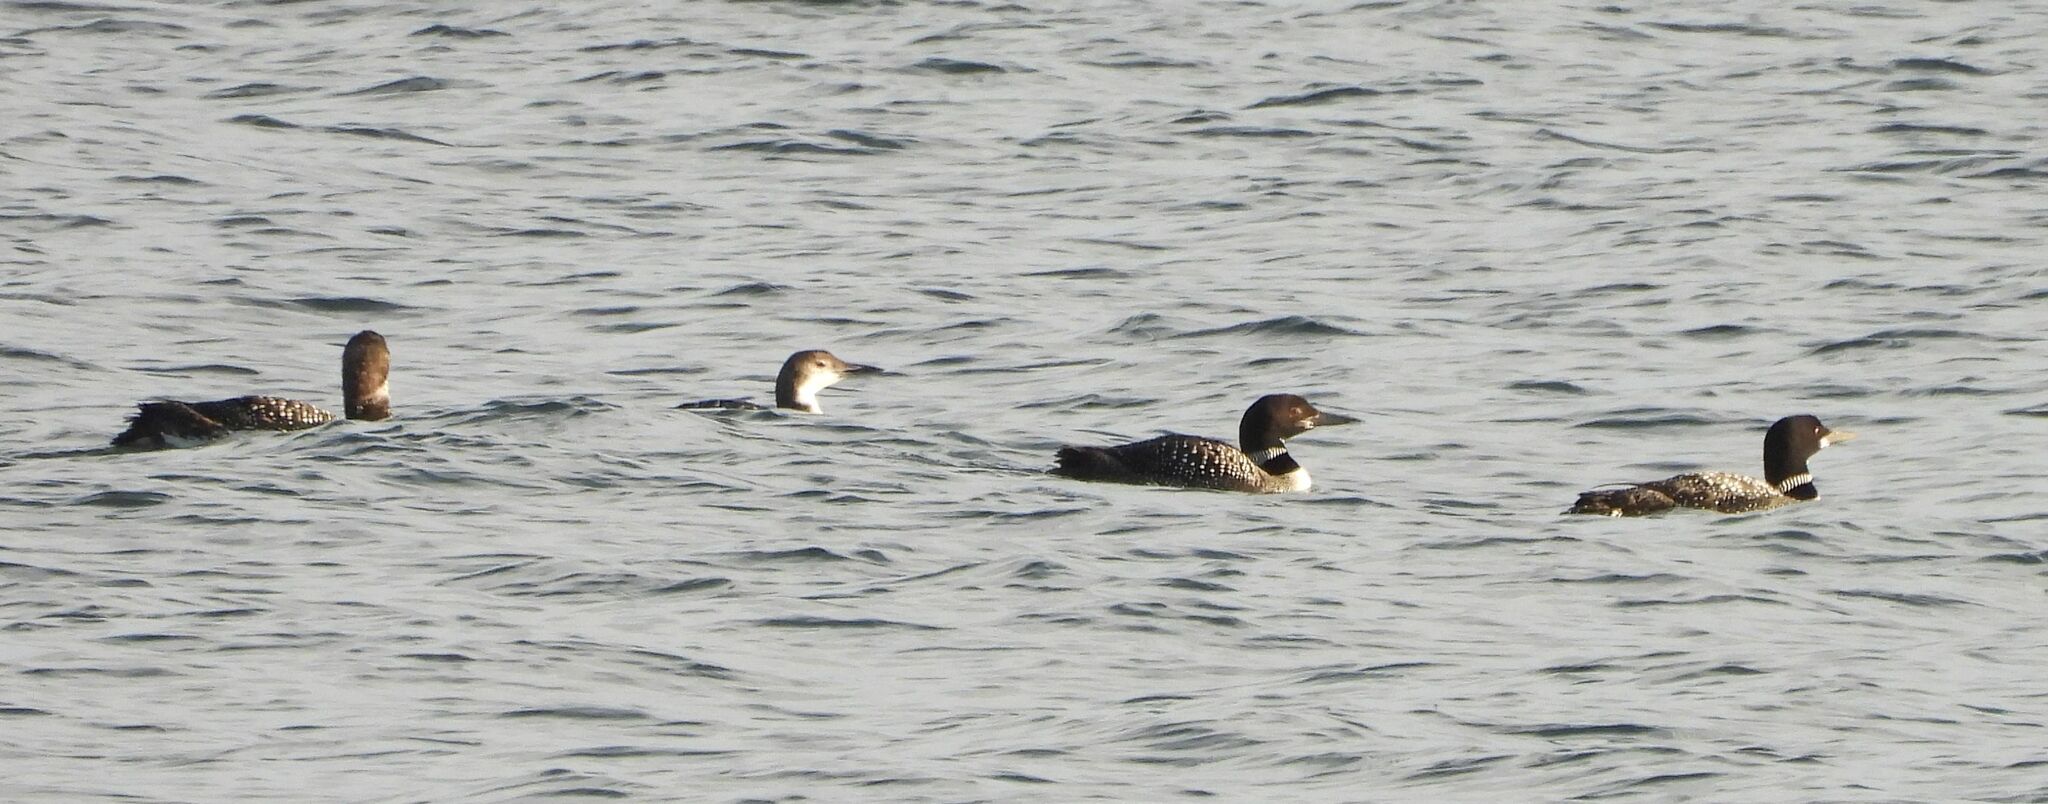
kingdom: Animalia
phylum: Chordata
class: Aves
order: Gaviiformes
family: Gaviidae
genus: Gavia
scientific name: Gavia immer
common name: Common loon
